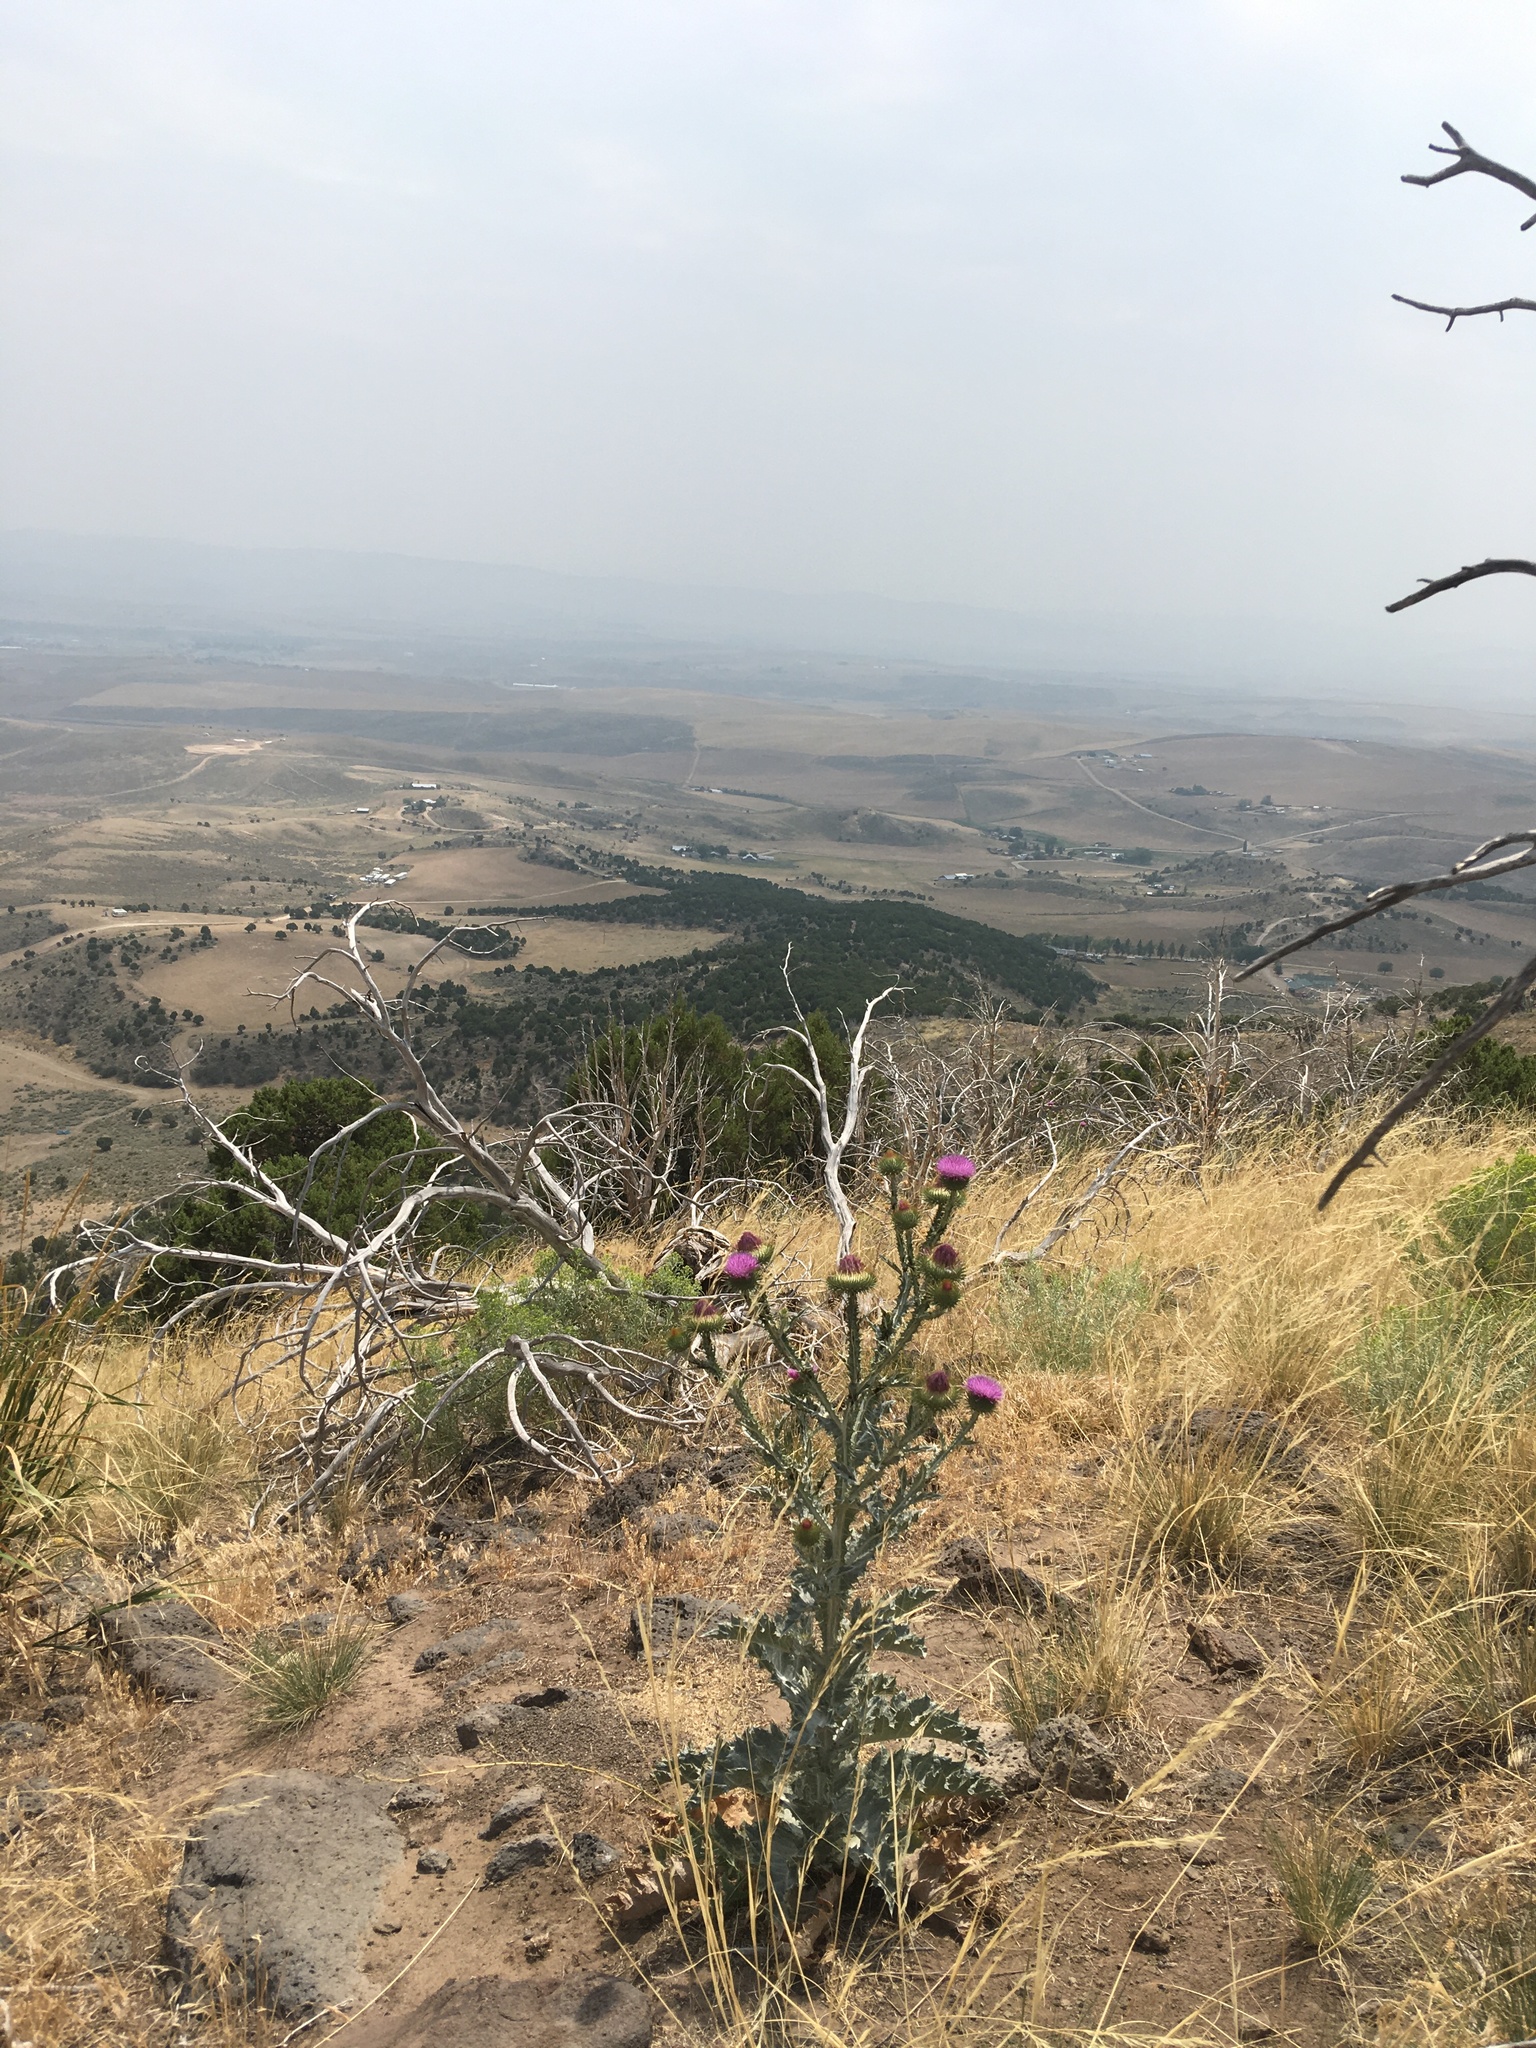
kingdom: Plantae
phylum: Tracheophyta
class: Magnoliopsida
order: Asterales
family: Asteraceae
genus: Onopordum
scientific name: Onopordum acanthium
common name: Scotch thistle
